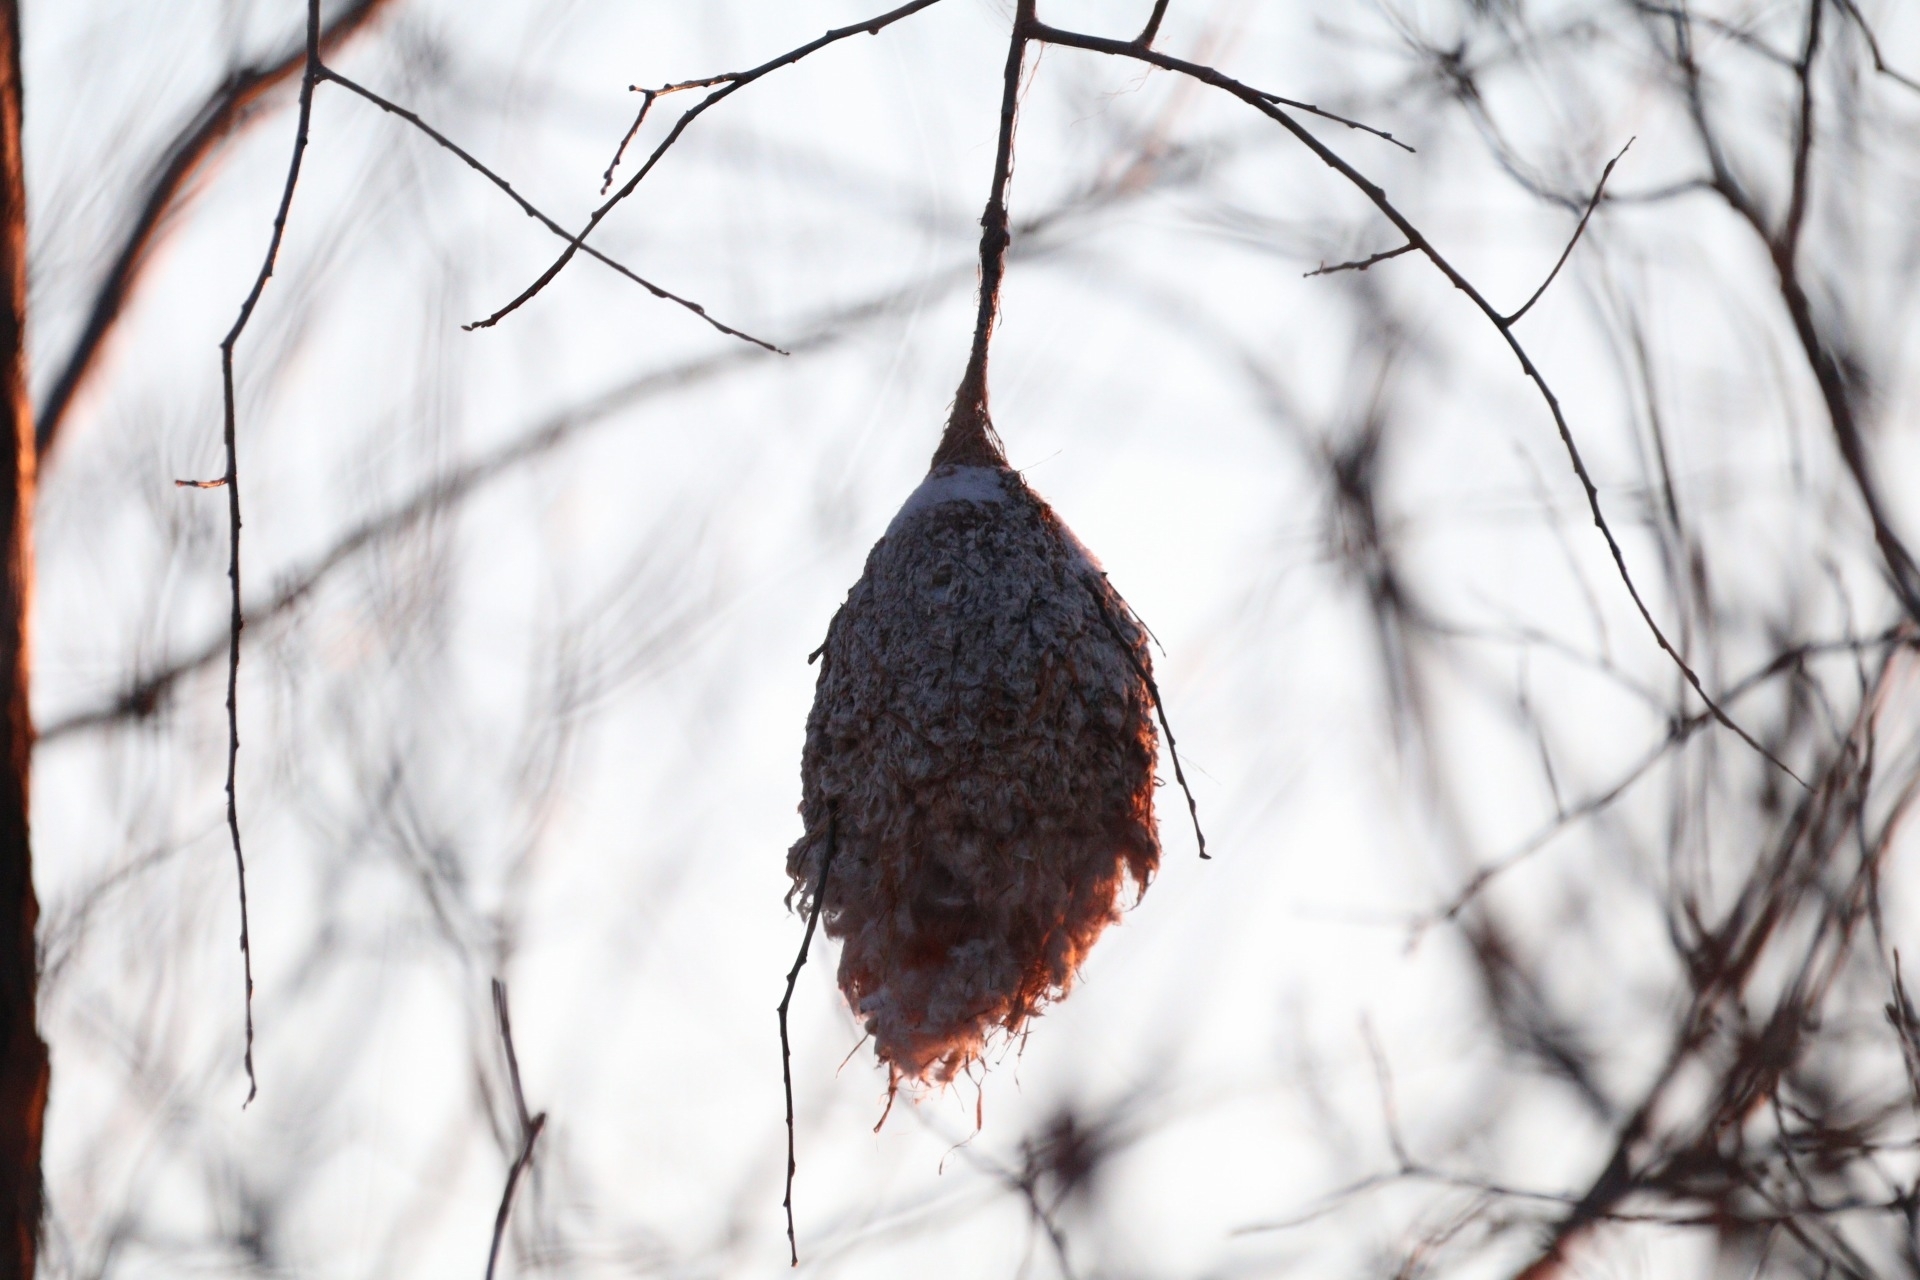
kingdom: Animalia
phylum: Chordata
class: Aves
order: Passeriformes
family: Remizidae
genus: Remiz
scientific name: Remiz pendulinus
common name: Eurasian penduline tit
